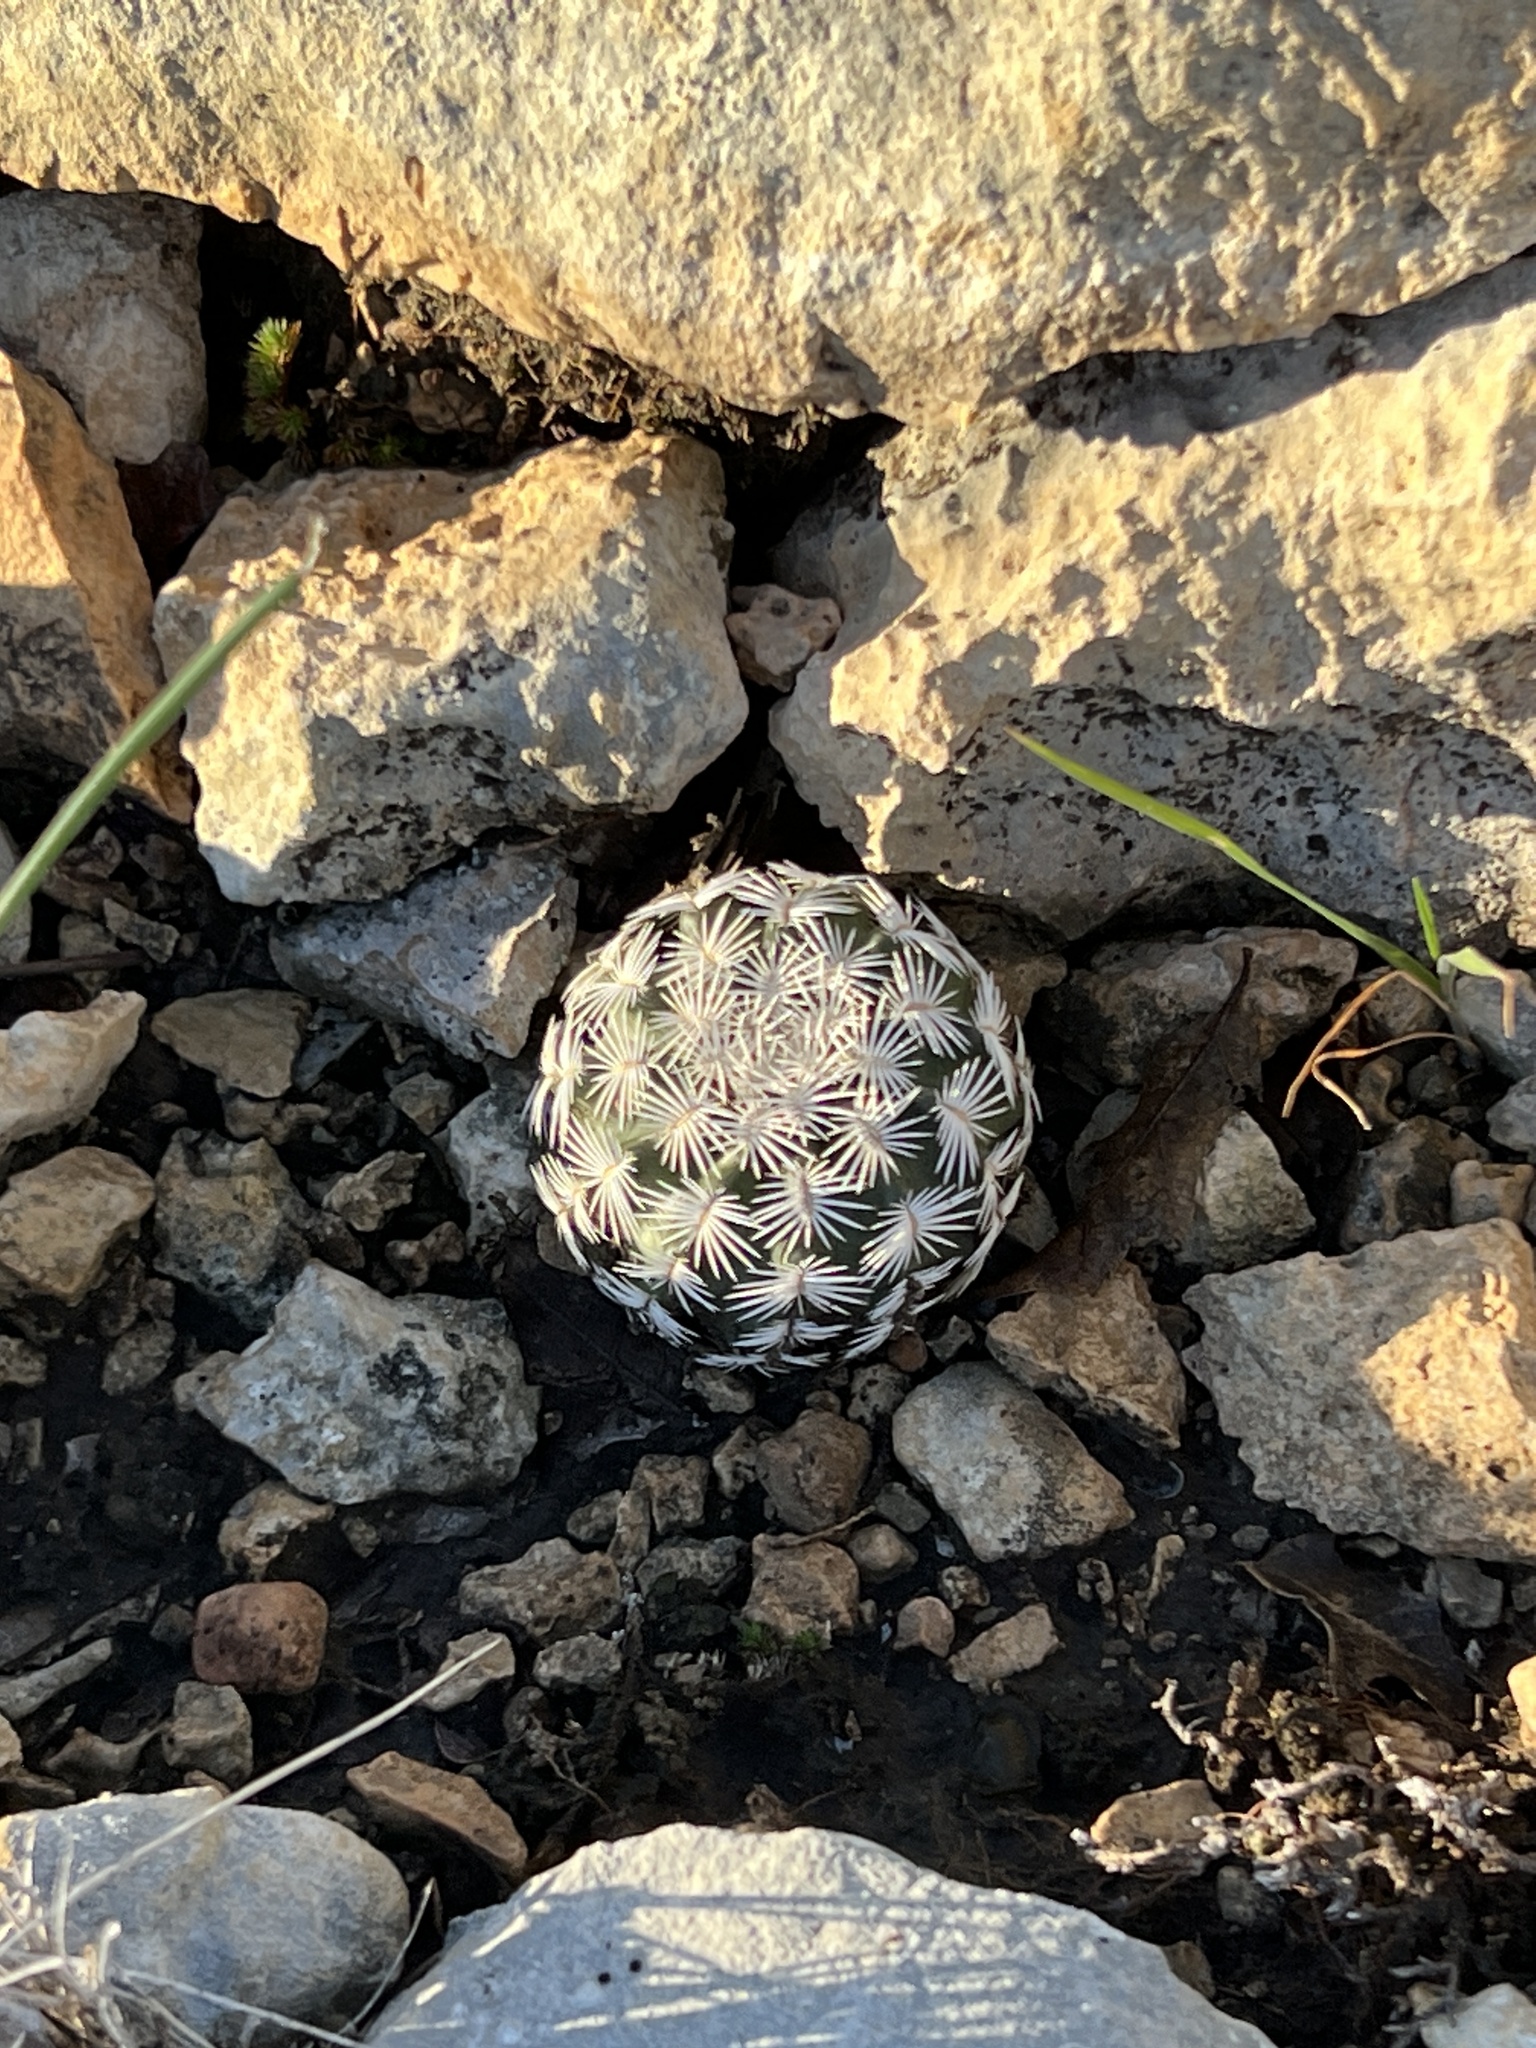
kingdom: Plantae
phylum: Tracheophyta
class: Magnoliopsida
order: Caryophyllales
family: Cactaceae
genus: Echinocereus
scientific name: Echinocereus reichenbachii
